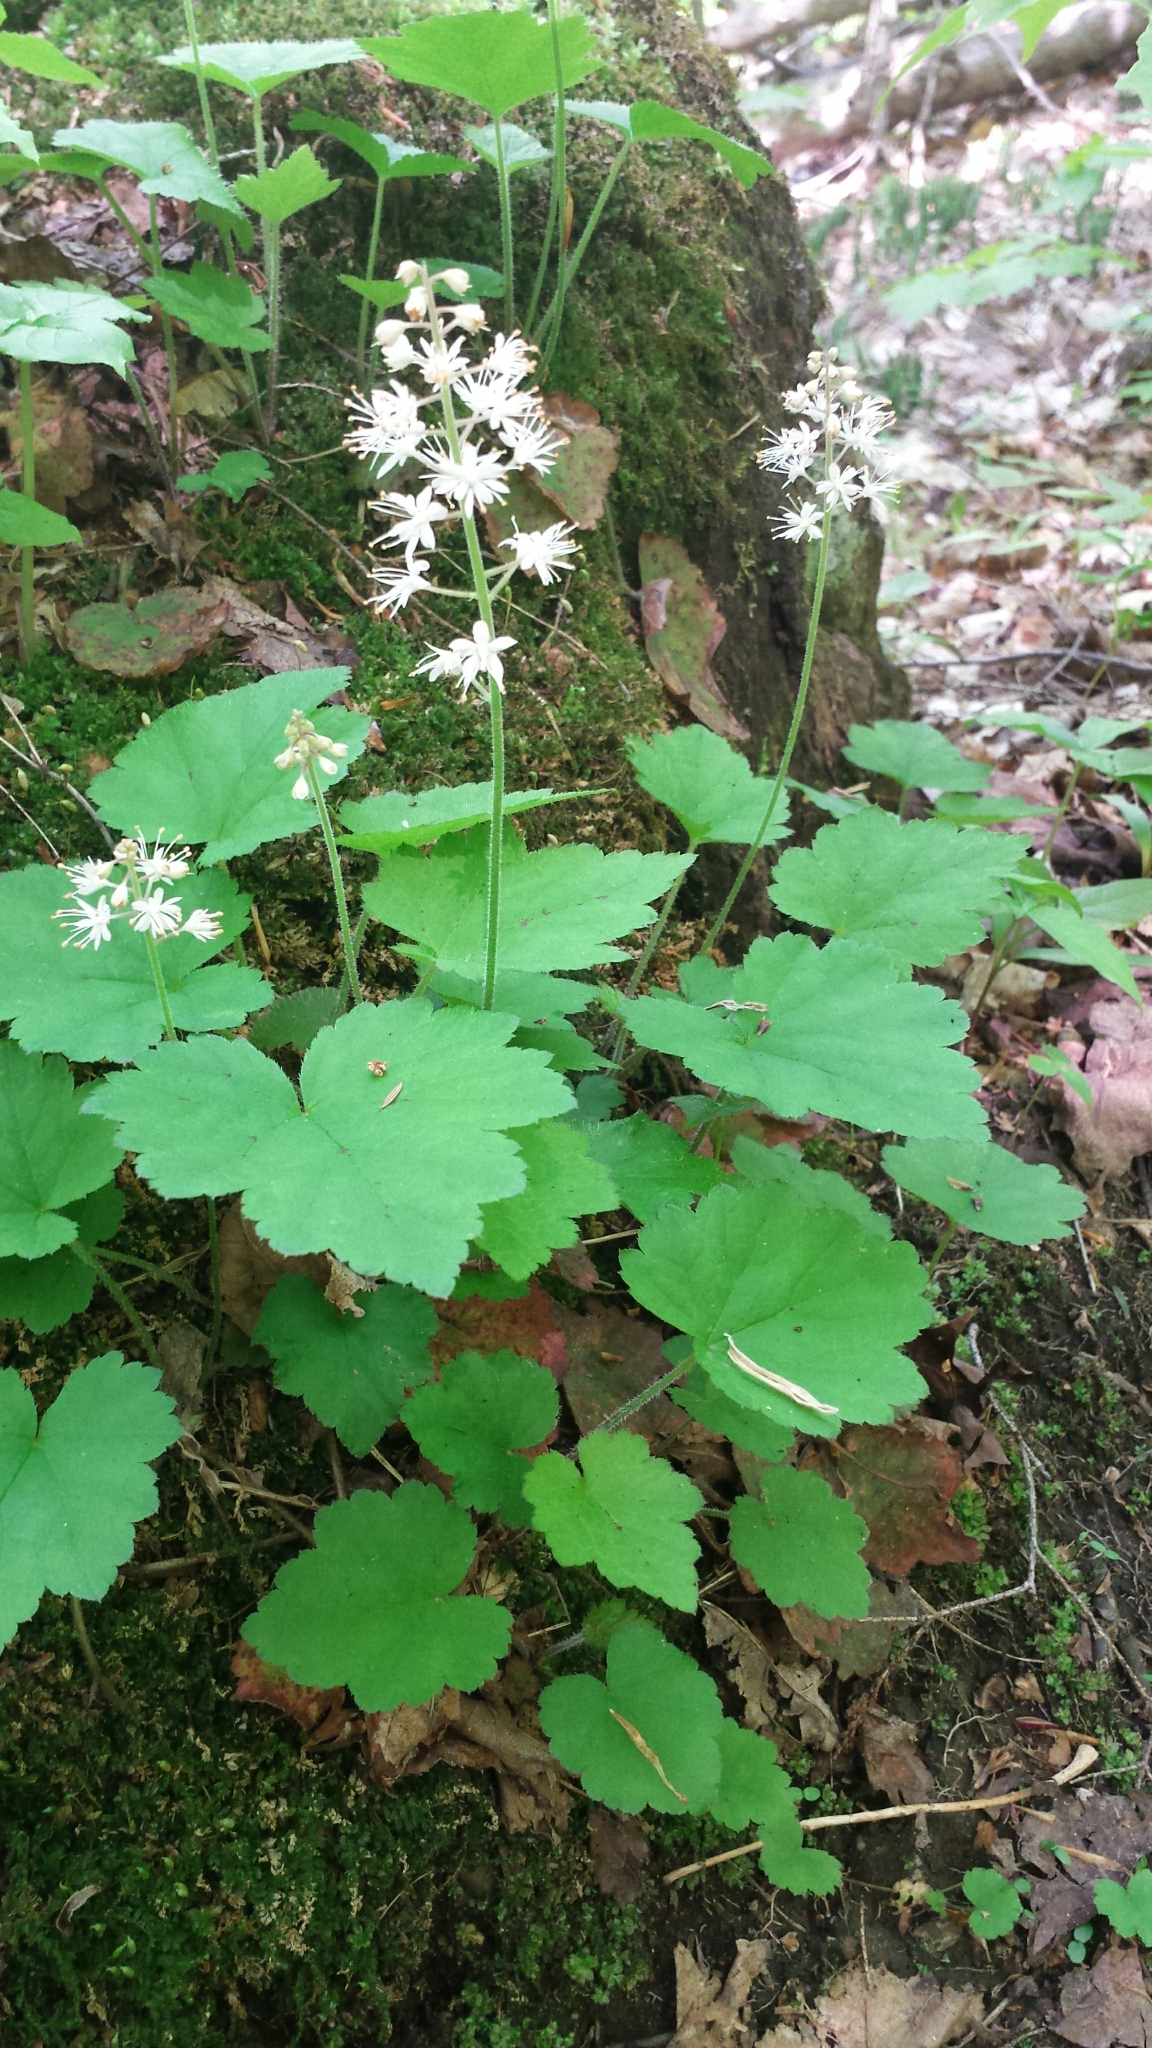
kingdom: Plantae
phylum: Tracheophyta
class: Magnoliopsida
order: Saxifragales
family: Saxifragaceae
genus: Tiarella
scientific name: Tiarella stolonifera
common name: Stoloniferous foamflower
